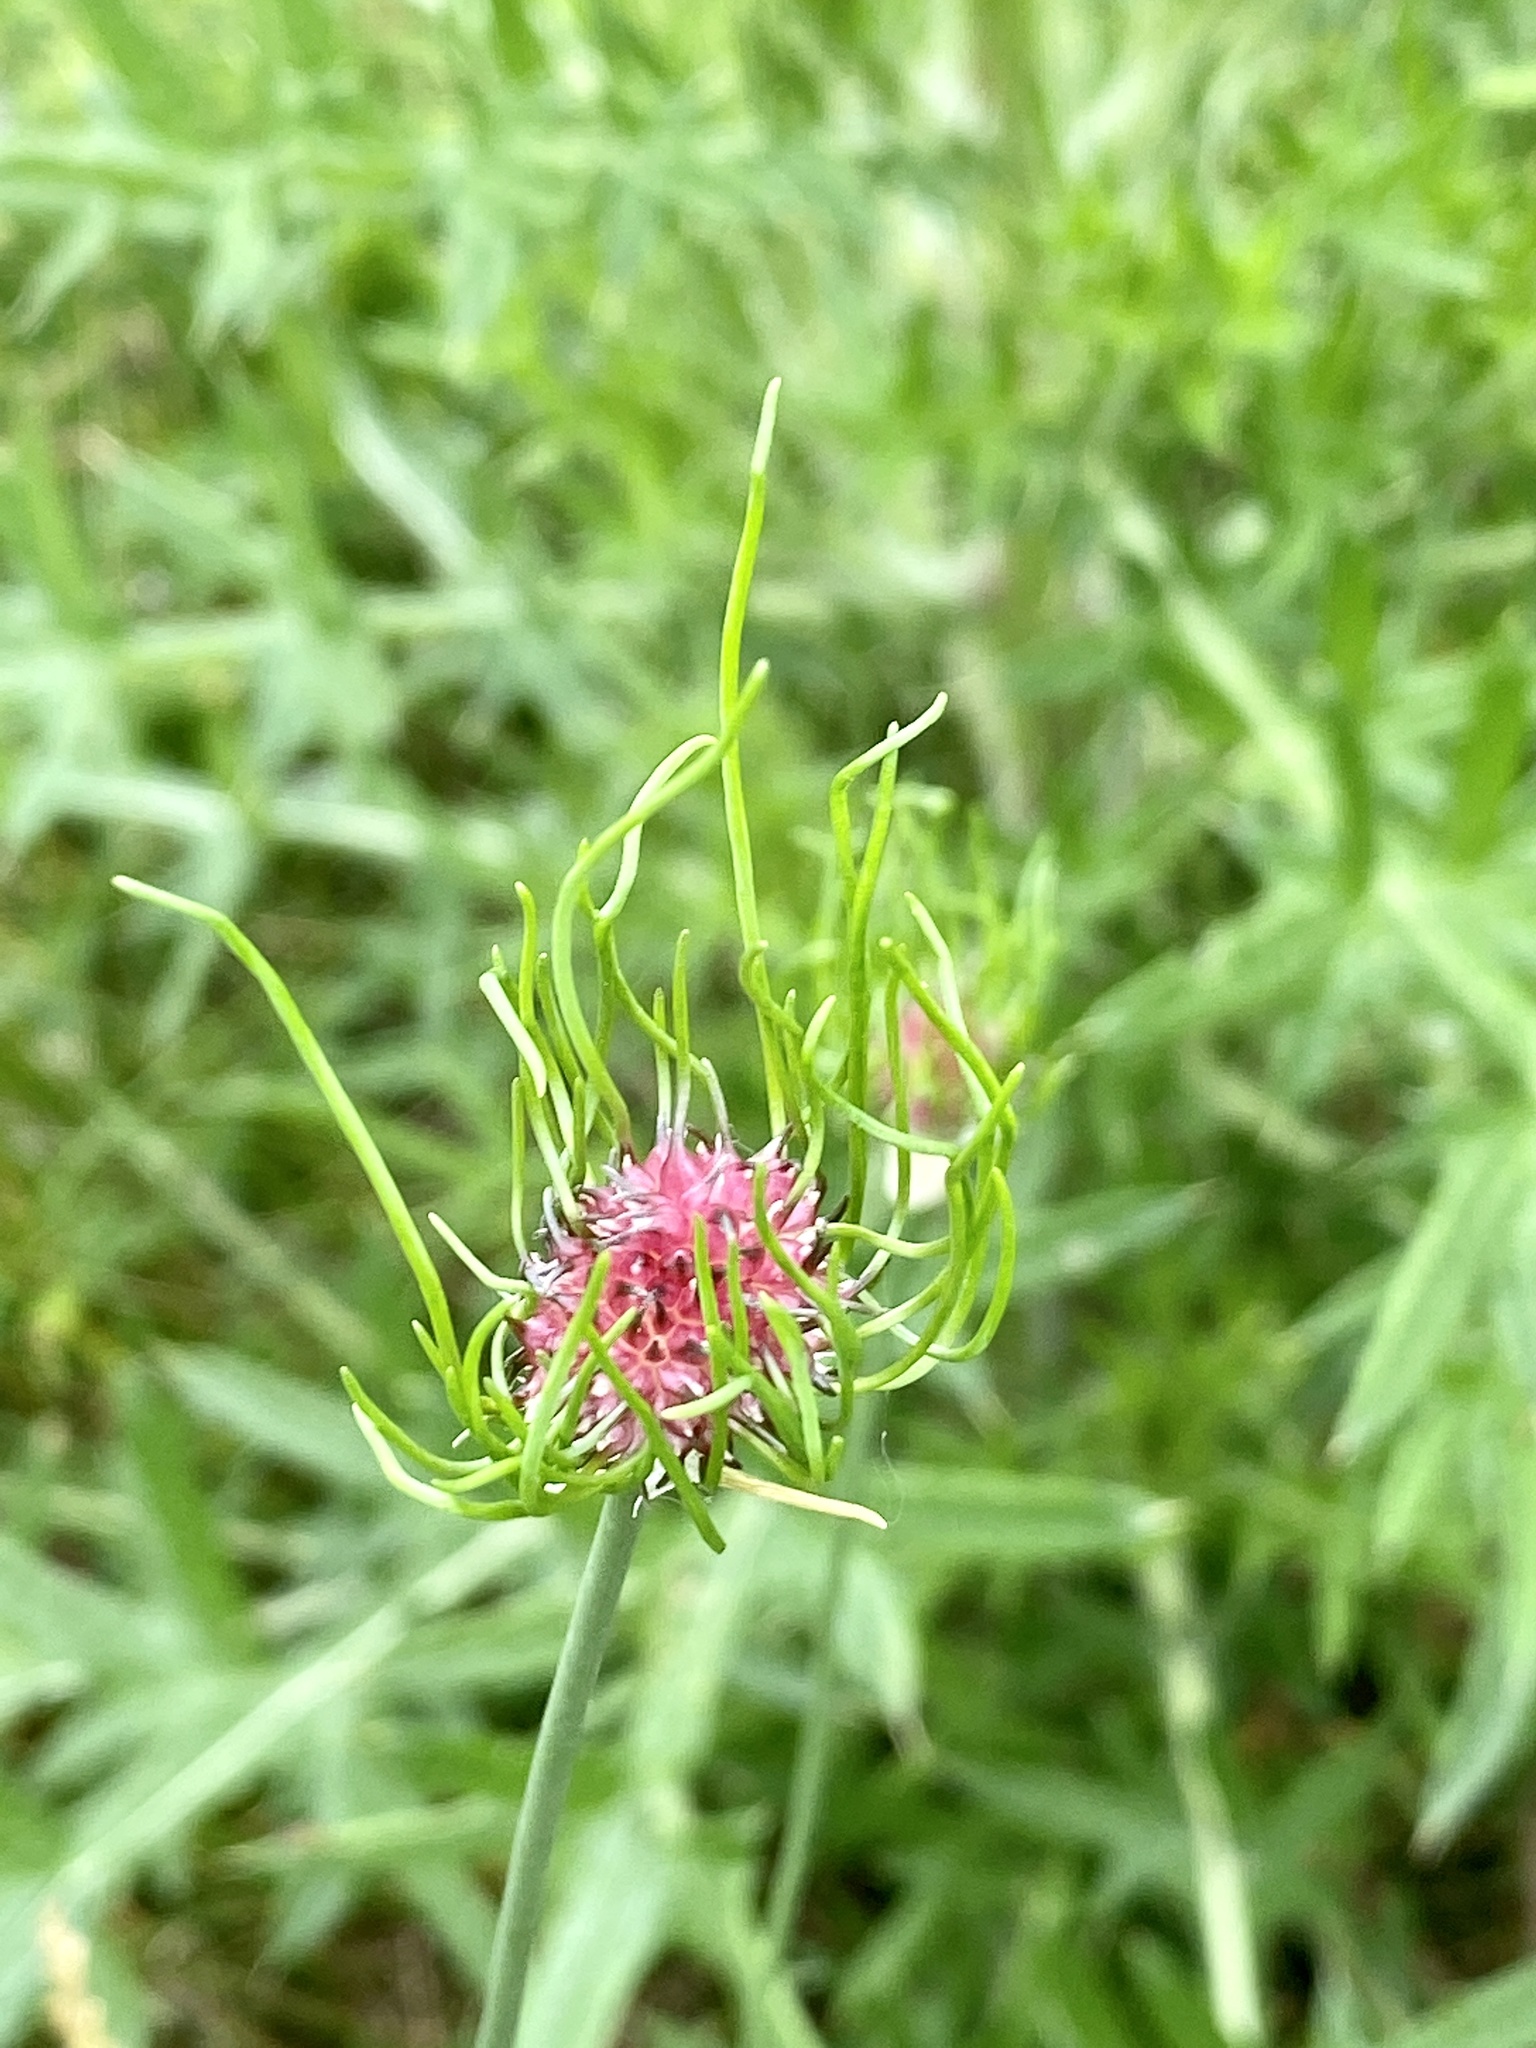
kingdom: Plantae
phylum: Tracheophyta
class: Liliopsida
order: Asparagales
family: Amaryllidaceae
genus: Allium
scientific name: Allium vineale
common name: Crow garlic
